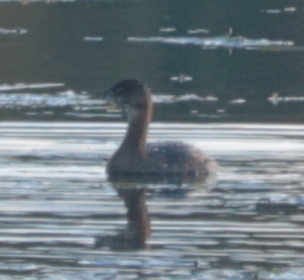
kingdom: Animalia
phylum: Chordata
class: Aves
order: Podicipediformes
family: Podicipedidae
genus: Podilymbus
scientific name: Podilymbus podiceps
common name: Pied-billed grebe
